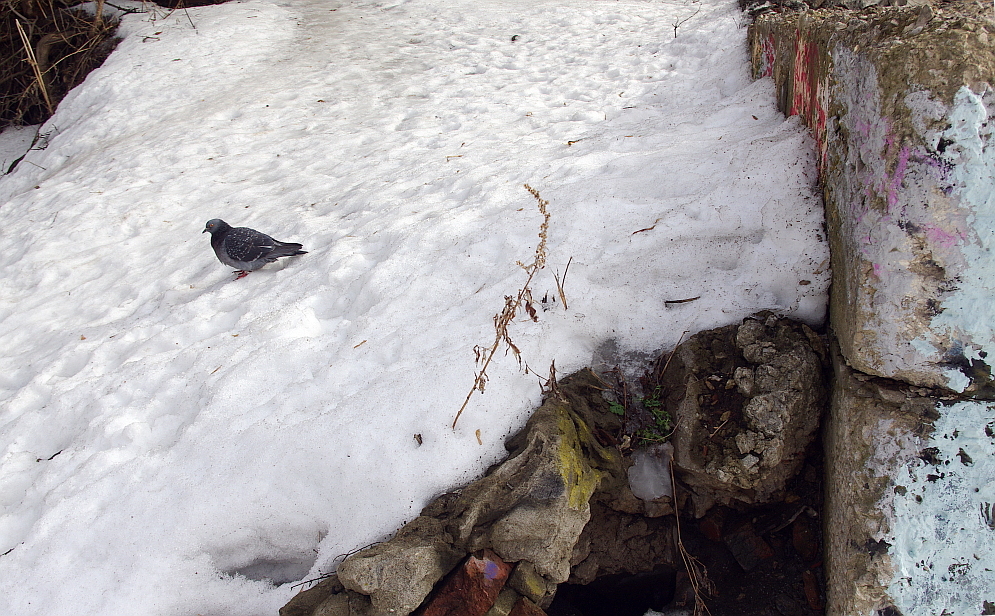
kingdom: Plantae
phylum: Tracheophyta
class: Magnoliopsida
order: Asterales
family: Asteraceae
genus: Artemisia
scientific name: Artemisia vulgaris
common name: Mugwort
